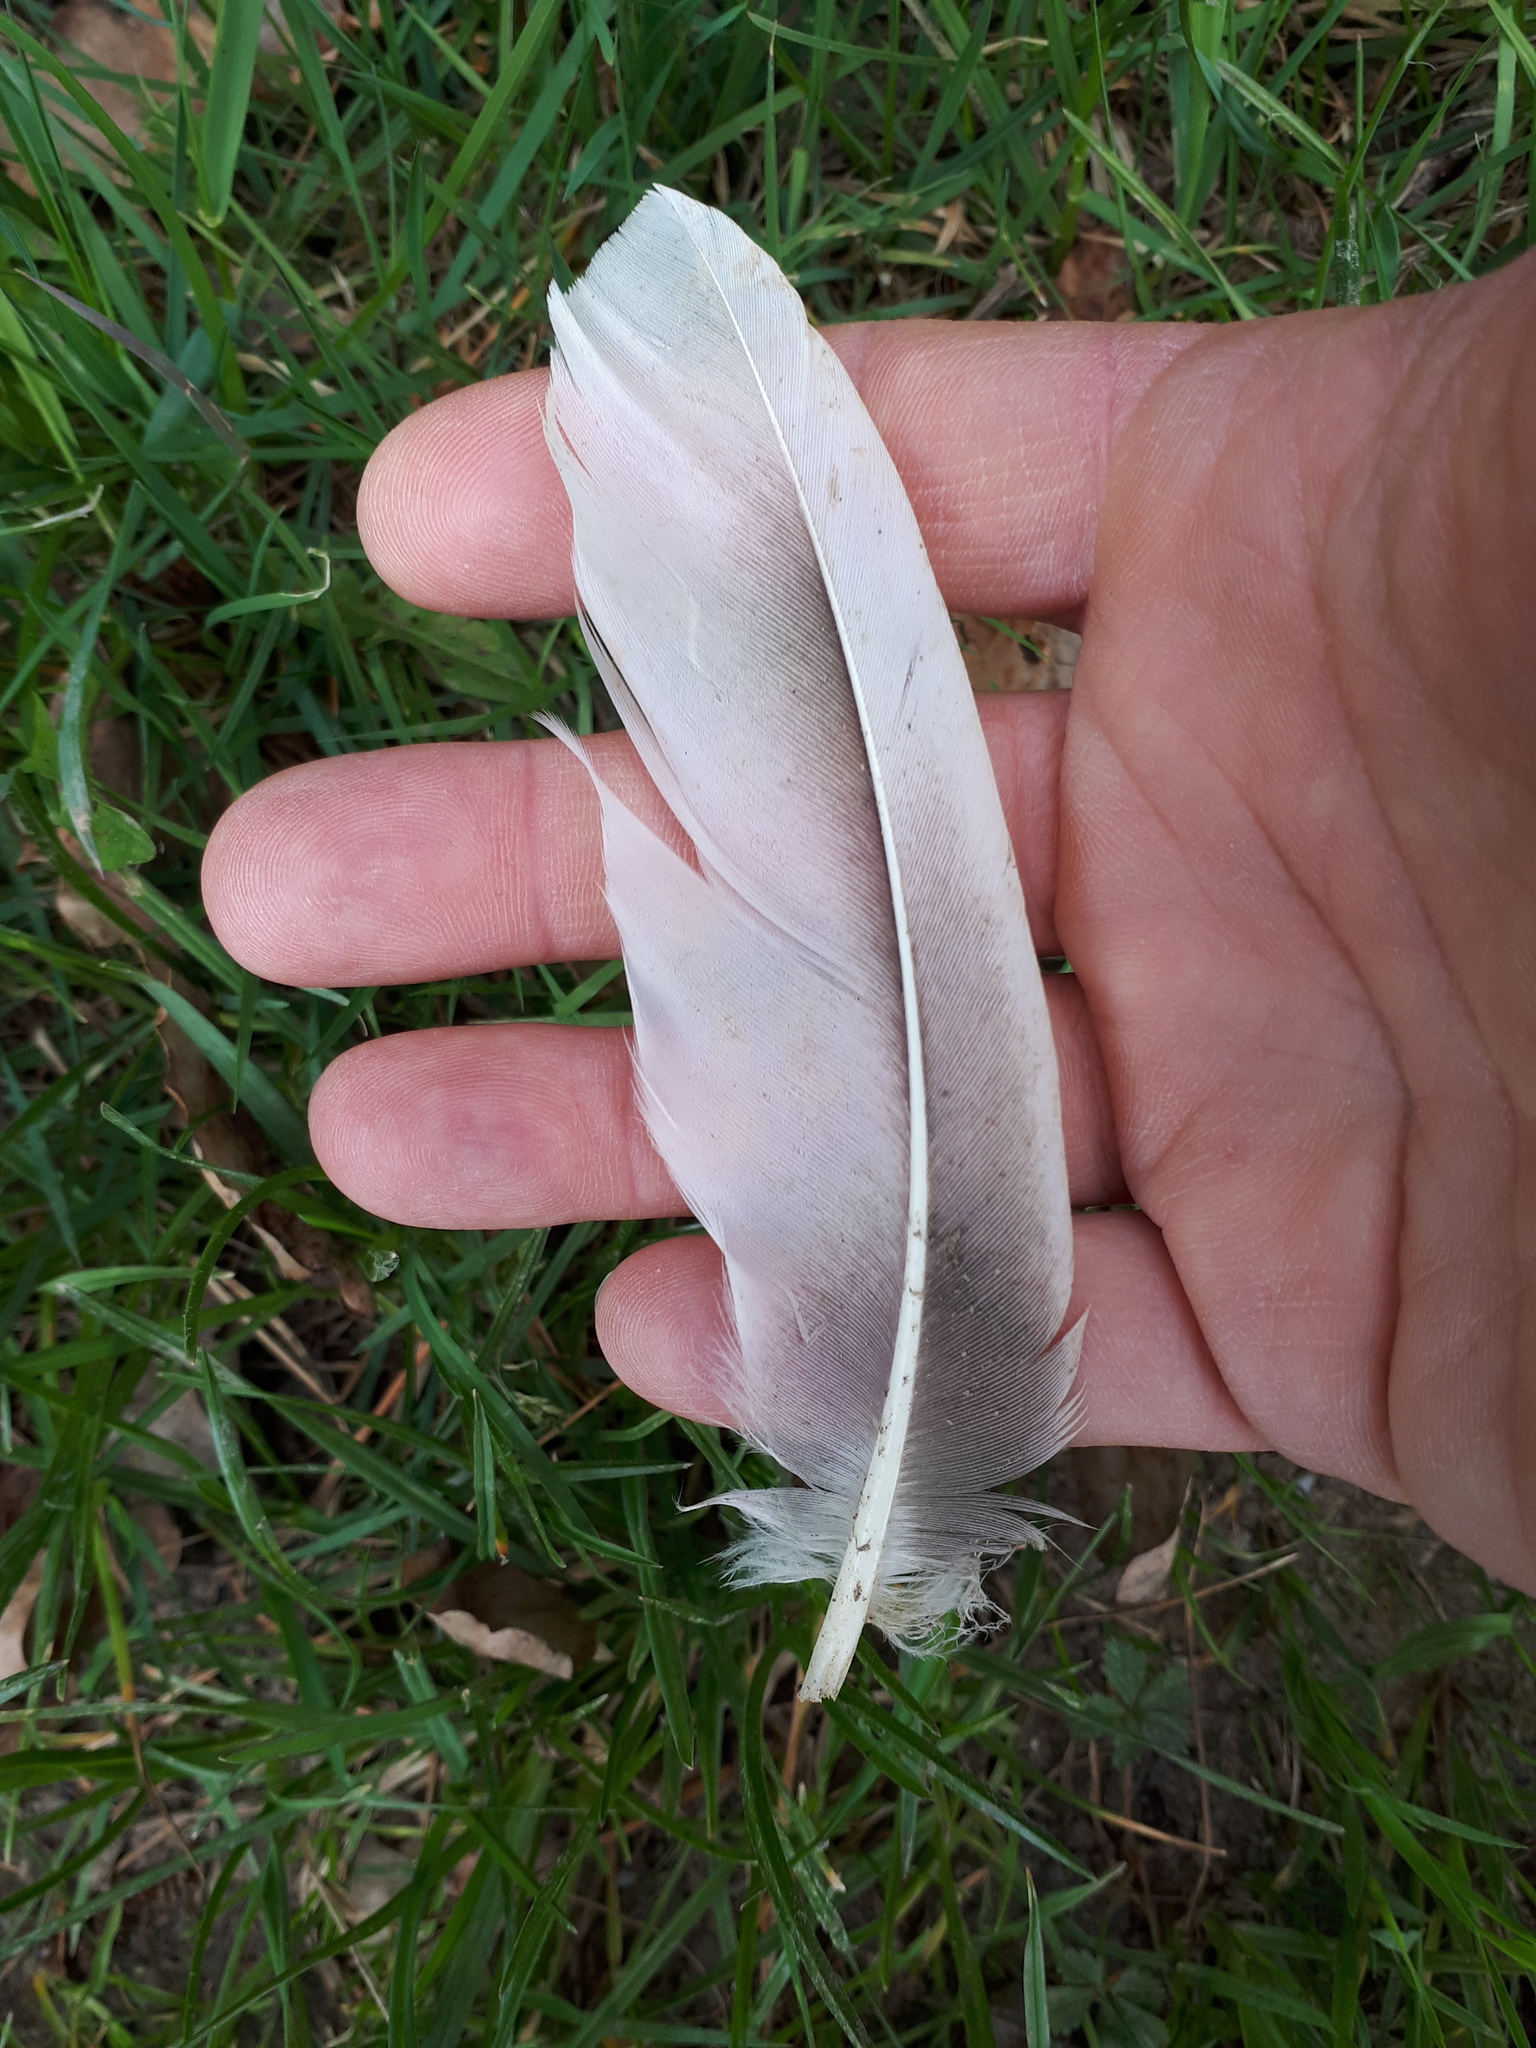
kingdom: Animalia
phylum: Chordata
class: Aves
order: Anseriformes
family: Anatidae
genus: Anser
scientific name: Anser anser
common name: Greylag goose
